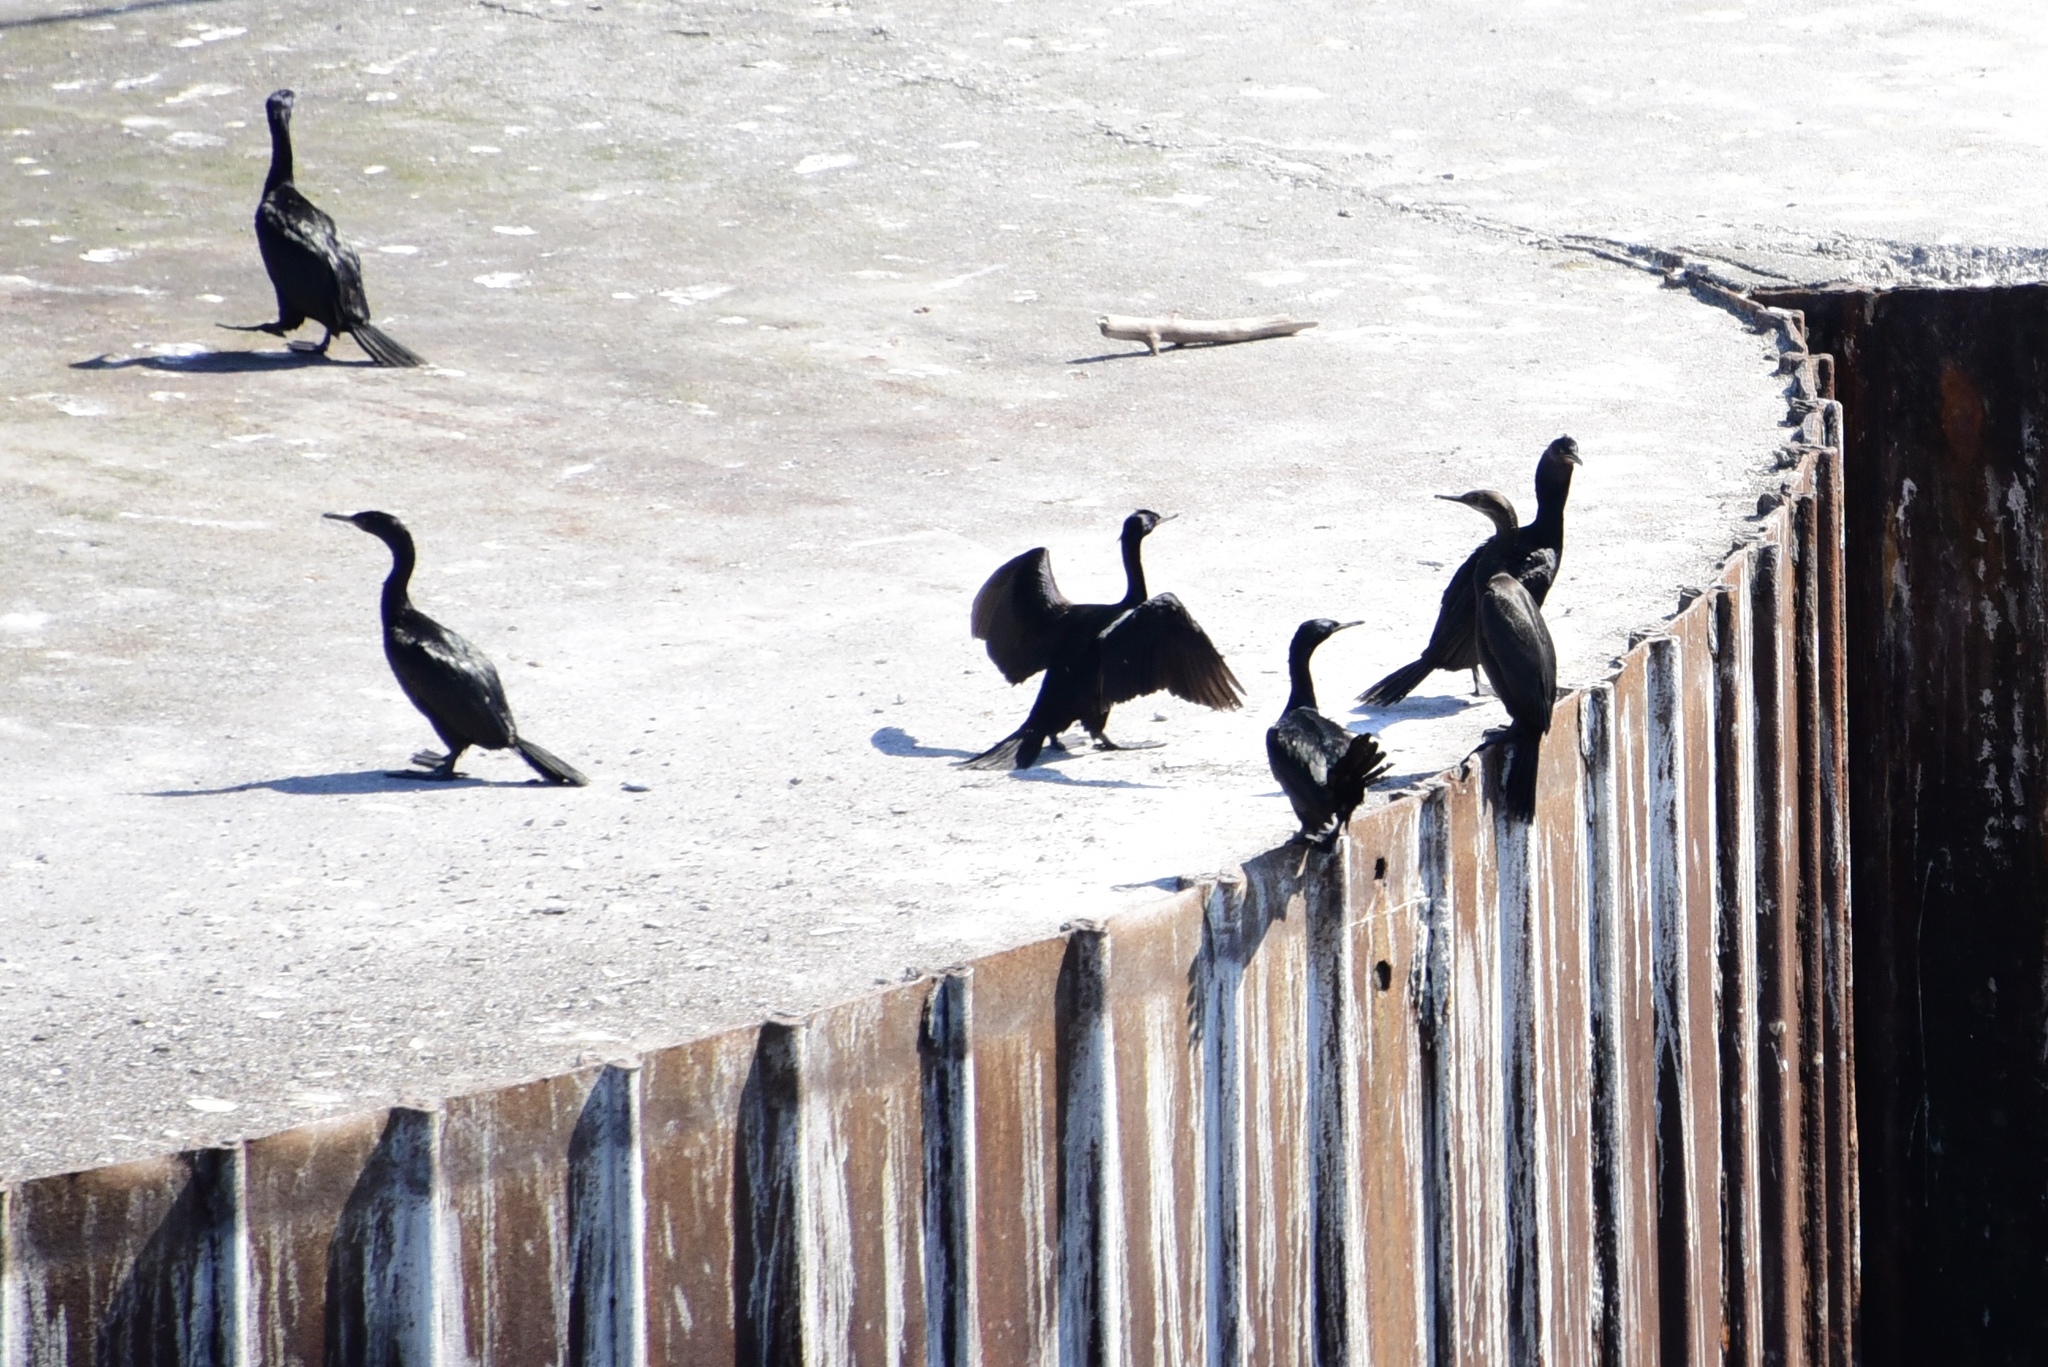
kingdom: Animalia
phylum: Chordata
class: Aves
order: Suliformes
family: Phalacrocoracidae
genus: Phalacrocorax
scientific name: Phalacrocorax pelagicus
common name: Pelagic cormorant
